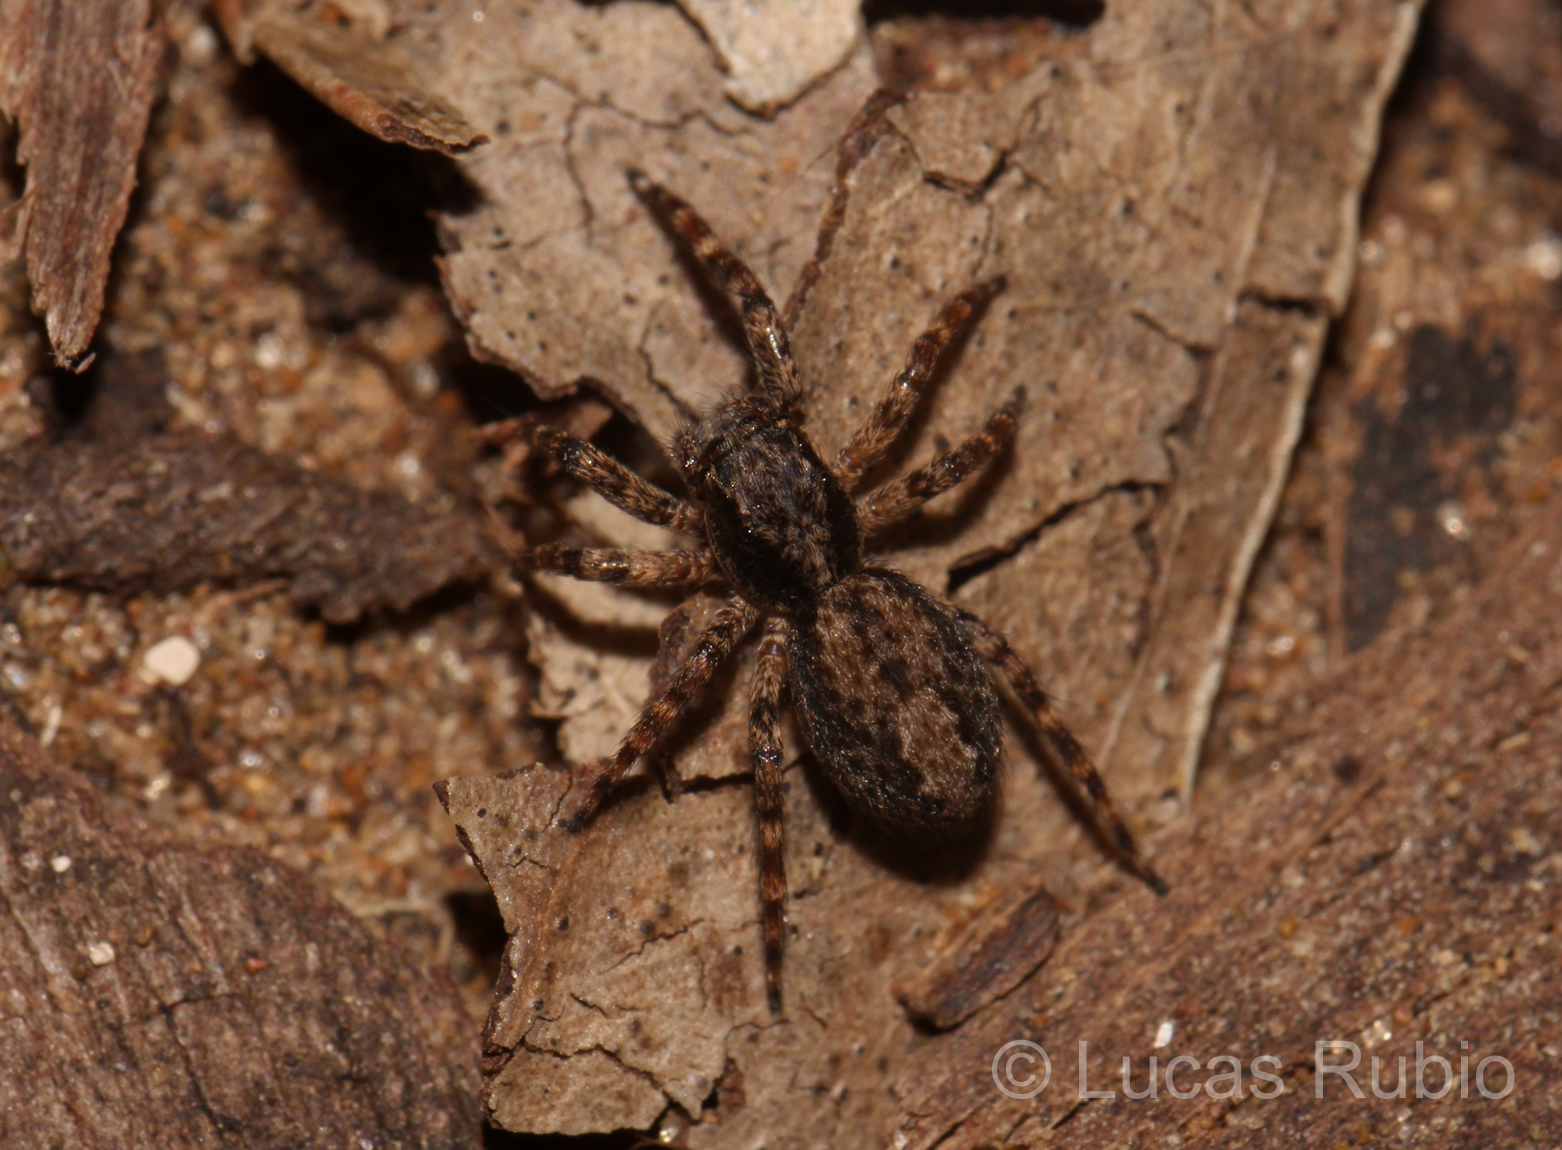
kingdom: Animalia
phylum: Arthropoda
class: Arachnida
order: Araneae
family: Salticidae
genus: Titanattus
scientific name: Titanattus andinus
